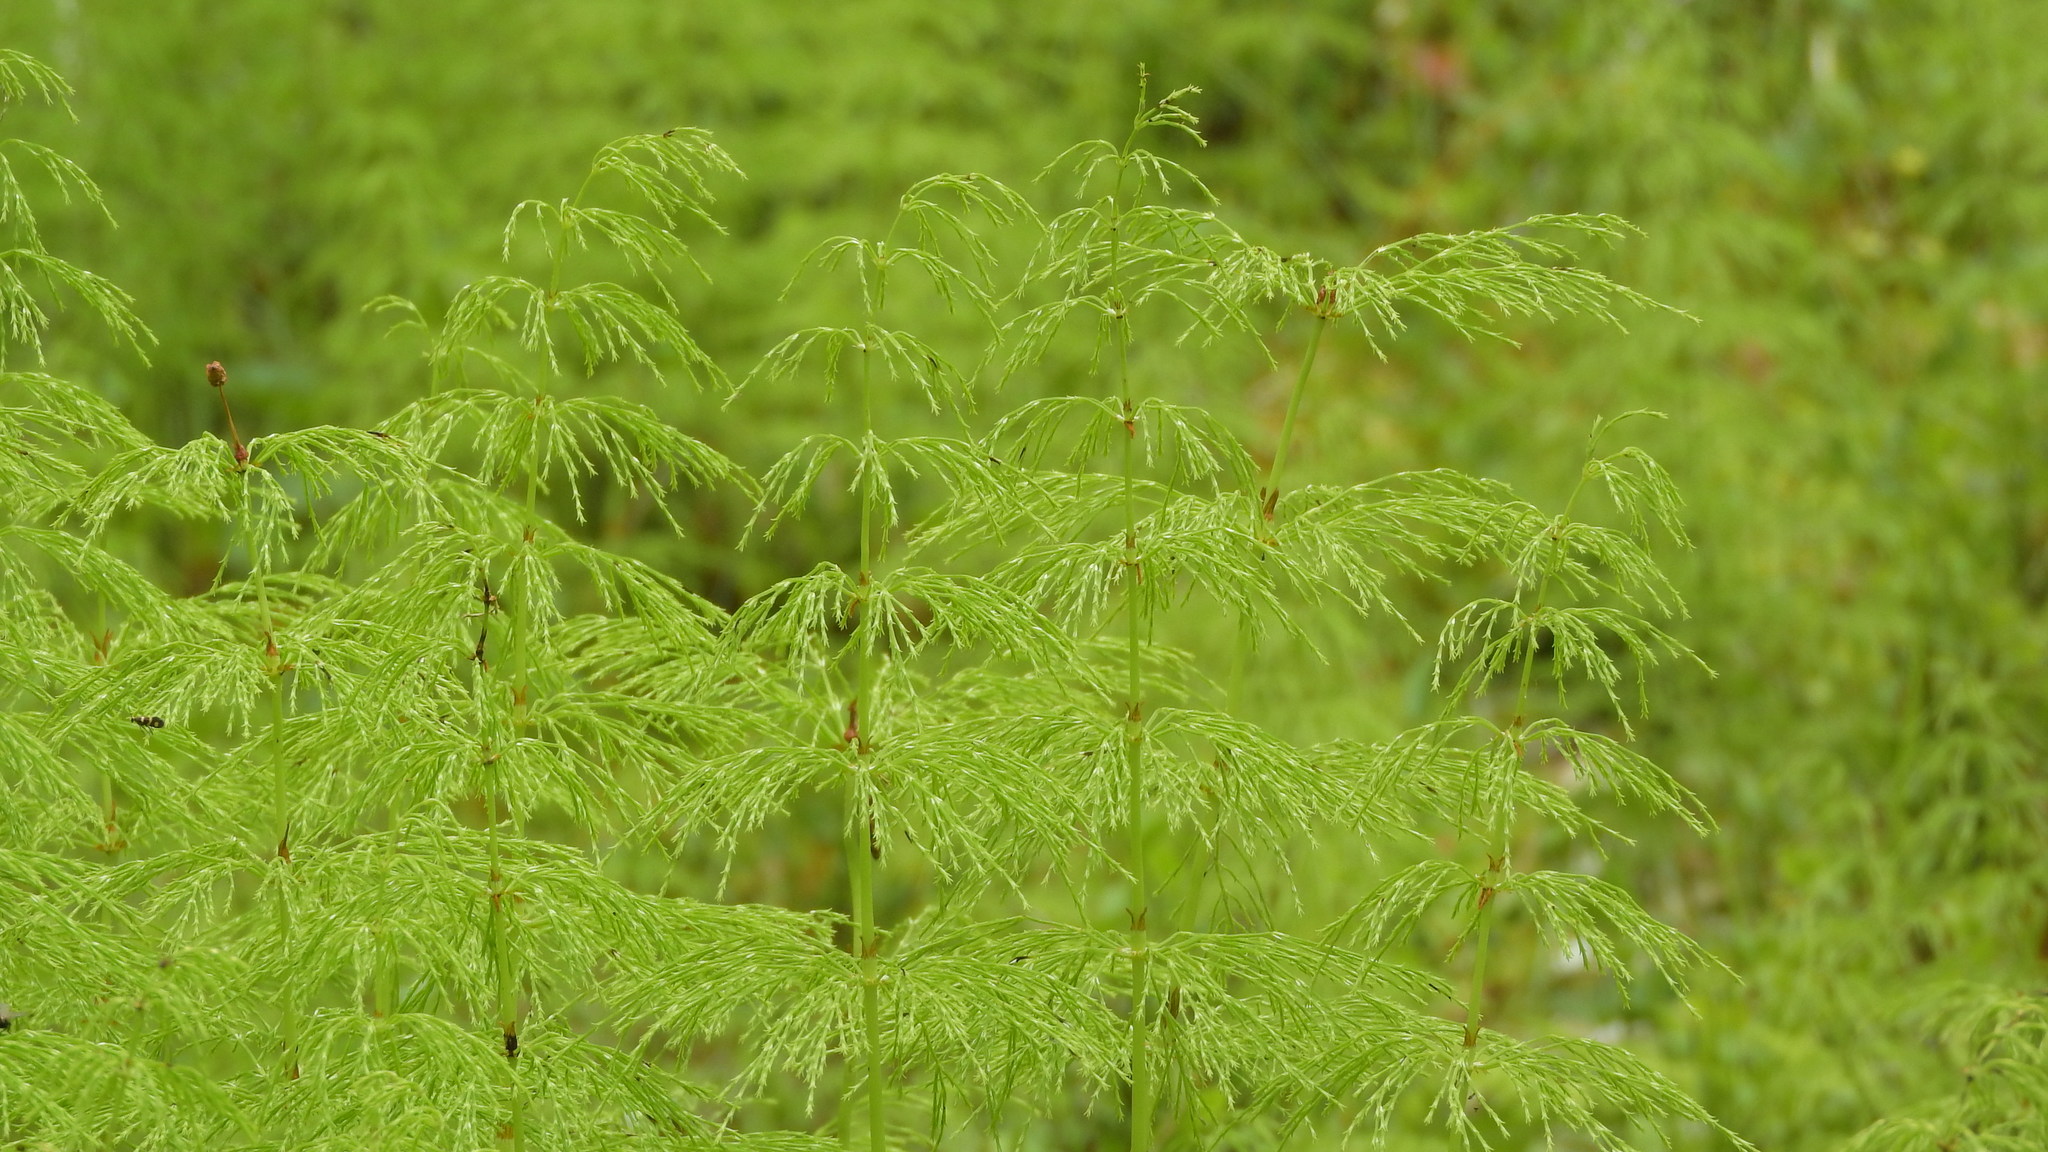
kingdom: Plantae
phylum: Tracheophyta
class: Polypodiopsida
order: Equisetales
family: Equisetaceae
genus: Equisetum
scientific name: Equisetum sylvaticum
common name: Wood horsetail
